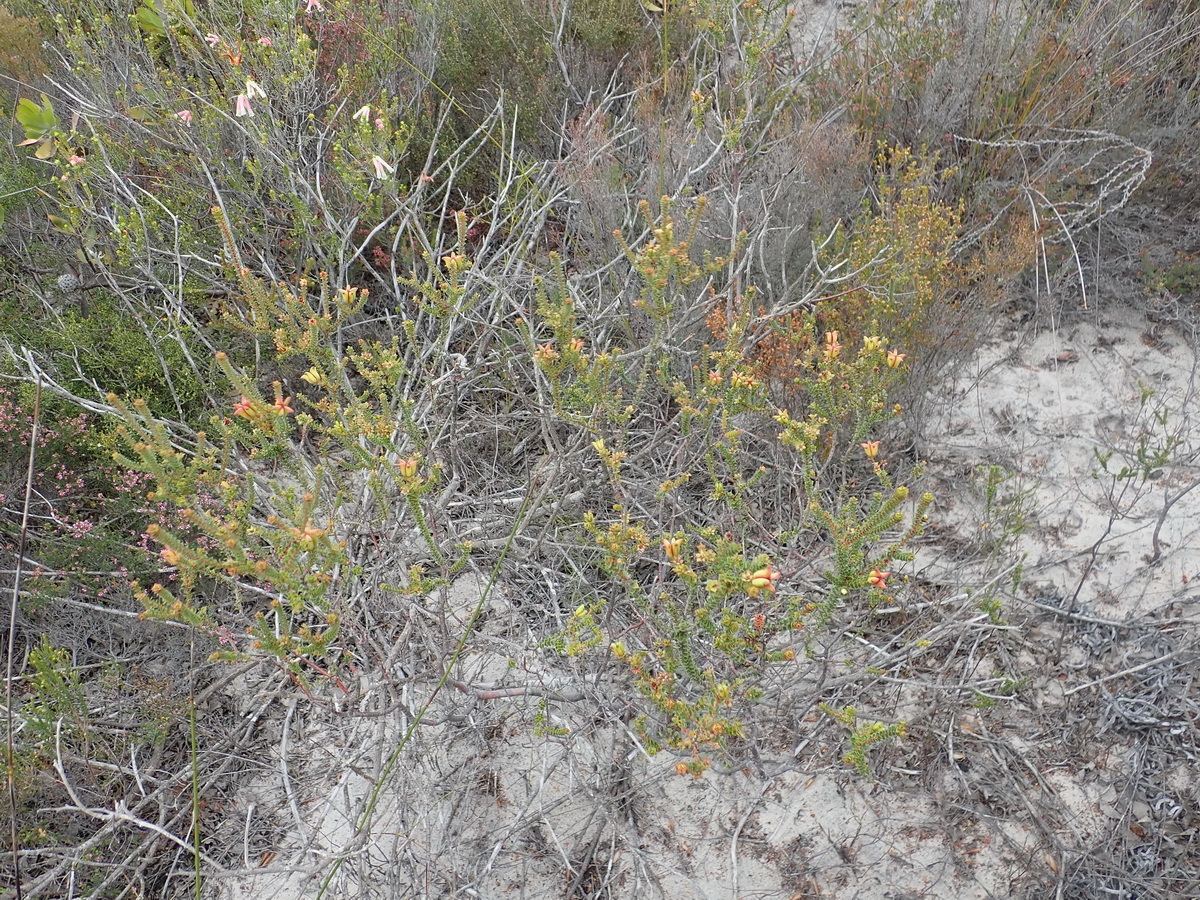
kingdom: Plantae
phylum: Tracheophyta
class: Magnoliopsida
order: Sapindales
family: Rutaceae
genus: Diosma
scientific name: Diosma echinulata
